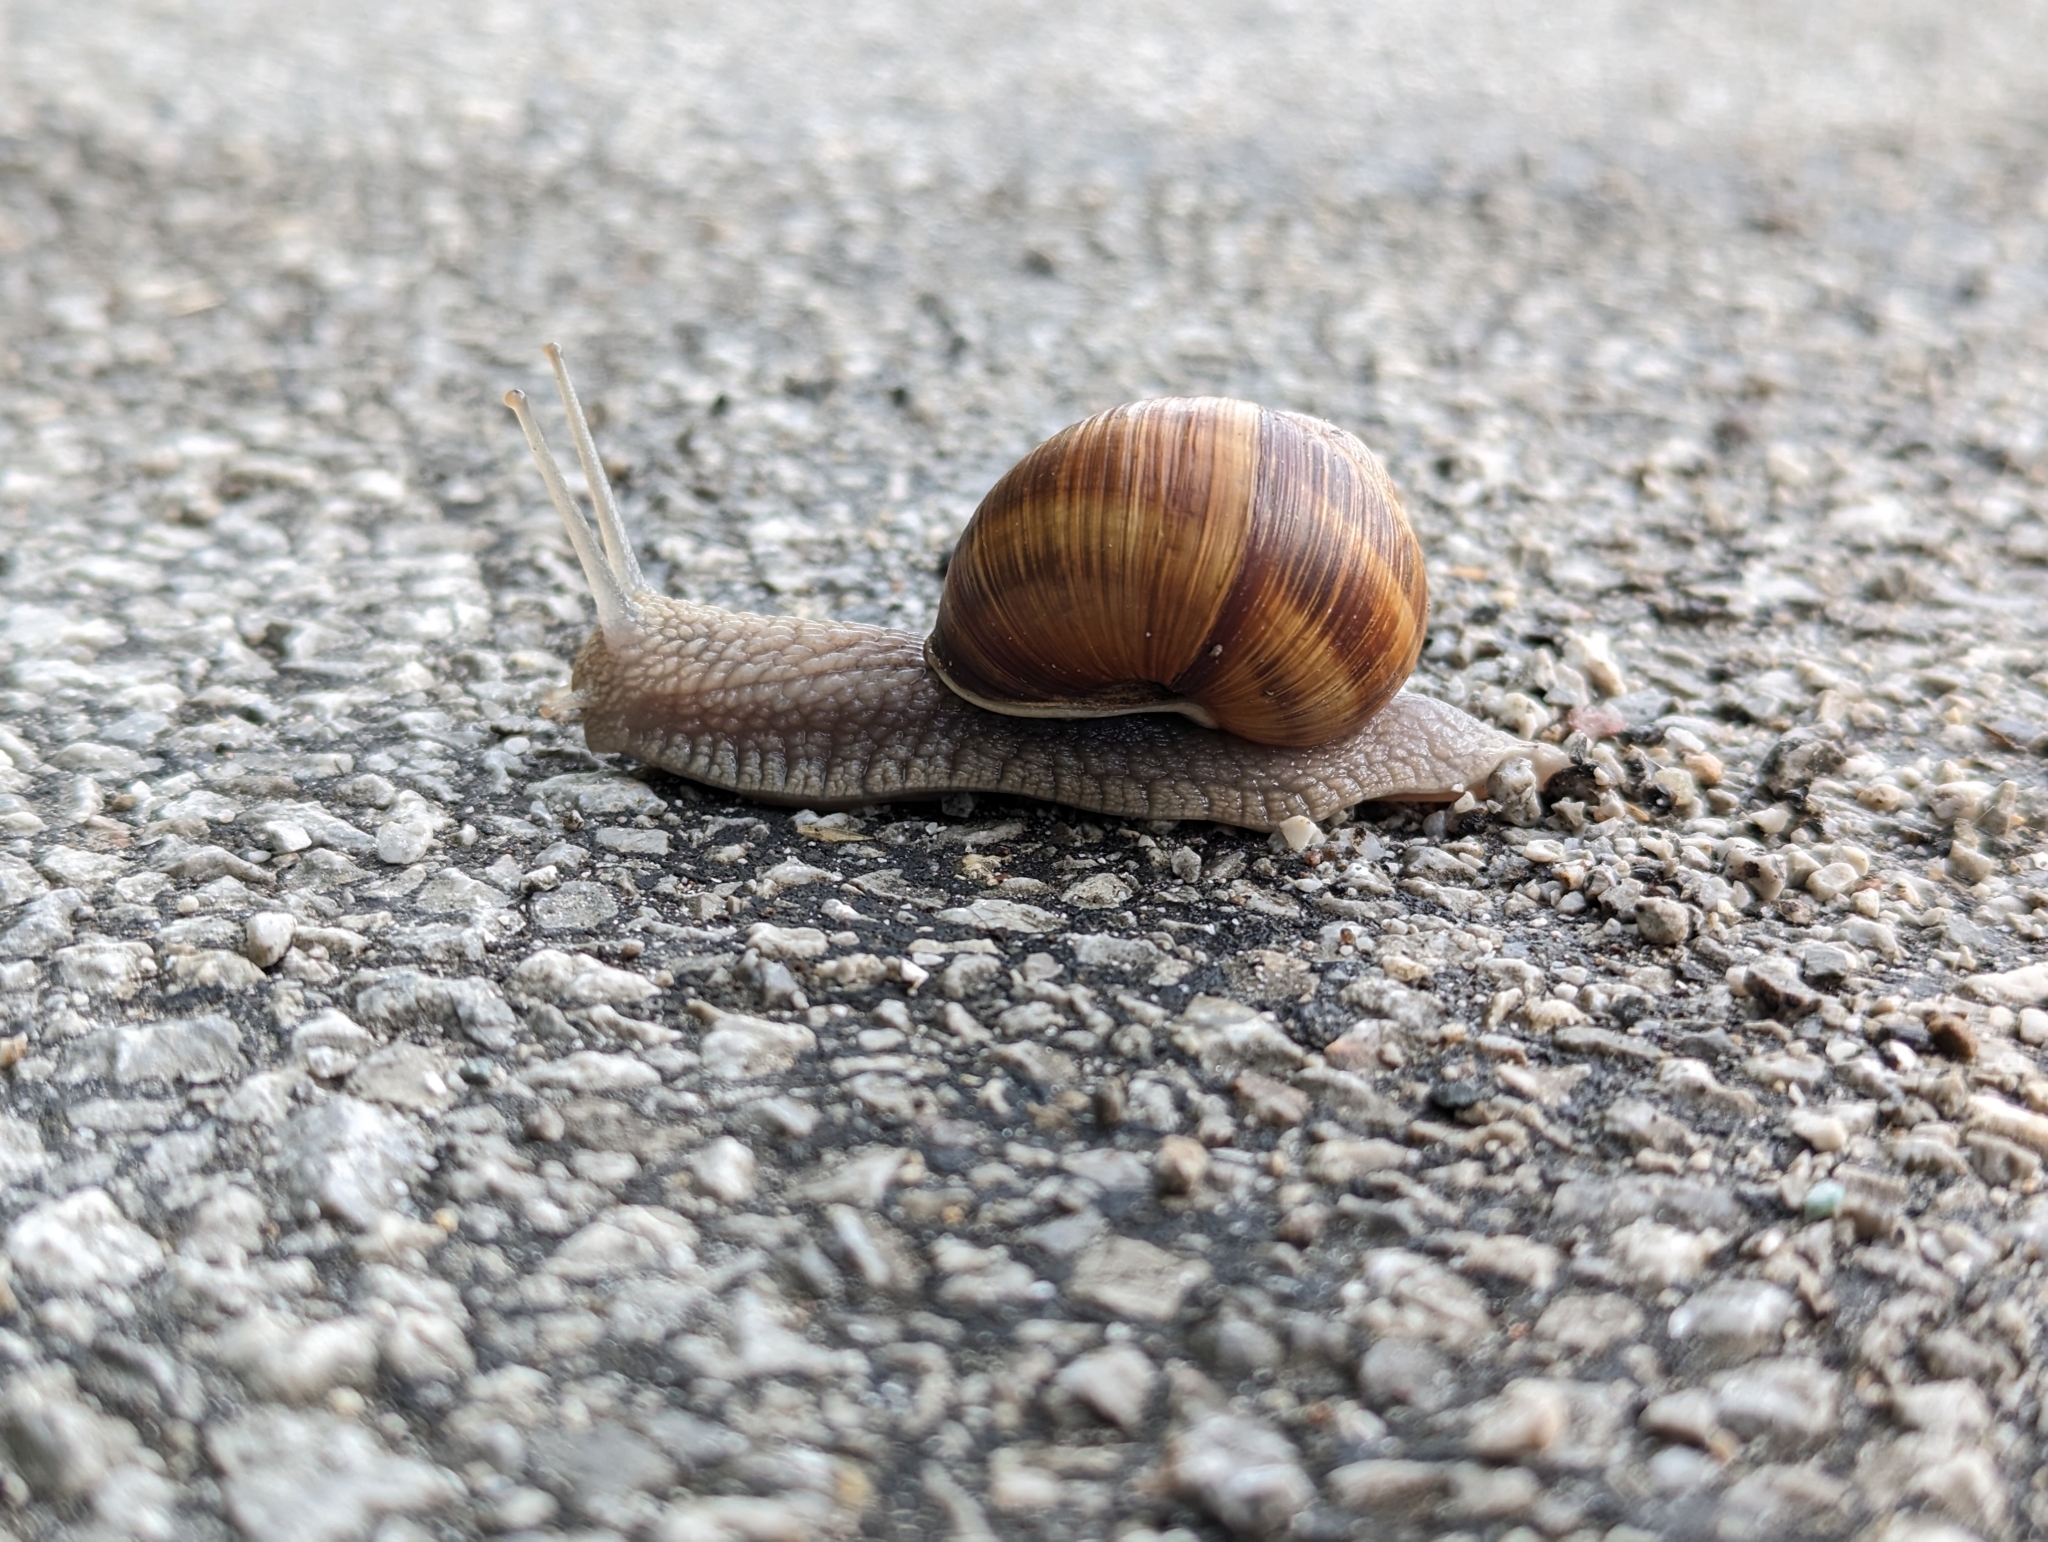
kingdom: Animalia
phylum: Mollusca
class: Gastropoda
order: Stylommatophora
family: Helicidae
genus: Helix
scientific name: Helix pomatia
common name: Roman snail
